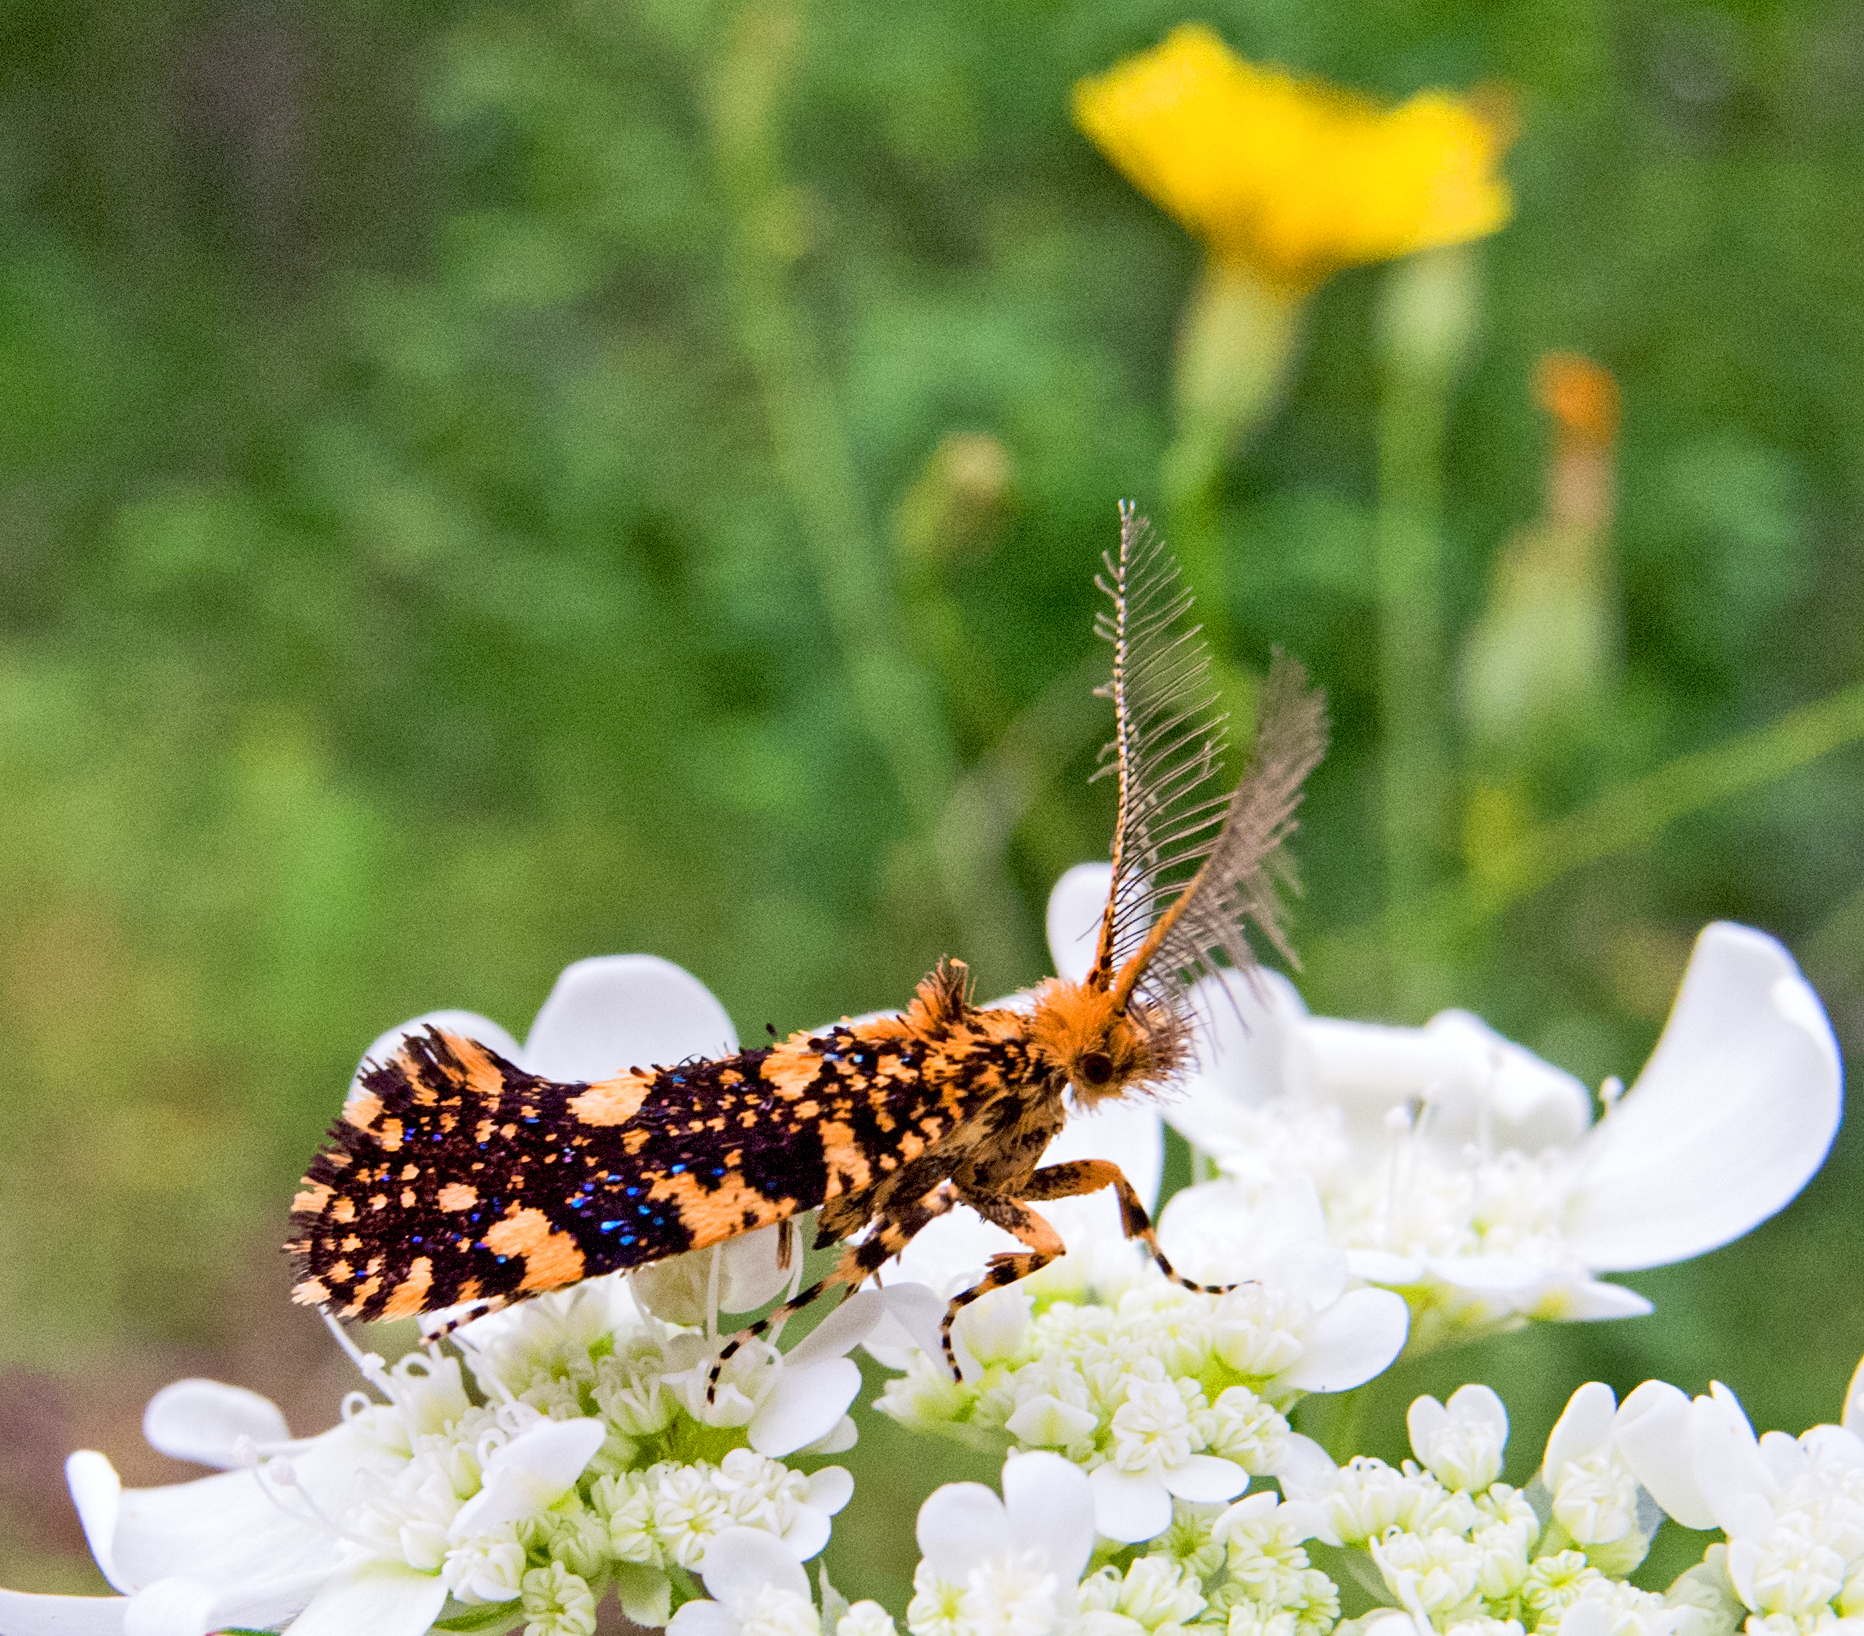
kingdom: Animalia
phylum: Arthropoda
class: Insecta
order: Lepidoptera
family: Tineidae
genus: Euplocamus
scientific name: Euplocamus ophisa
